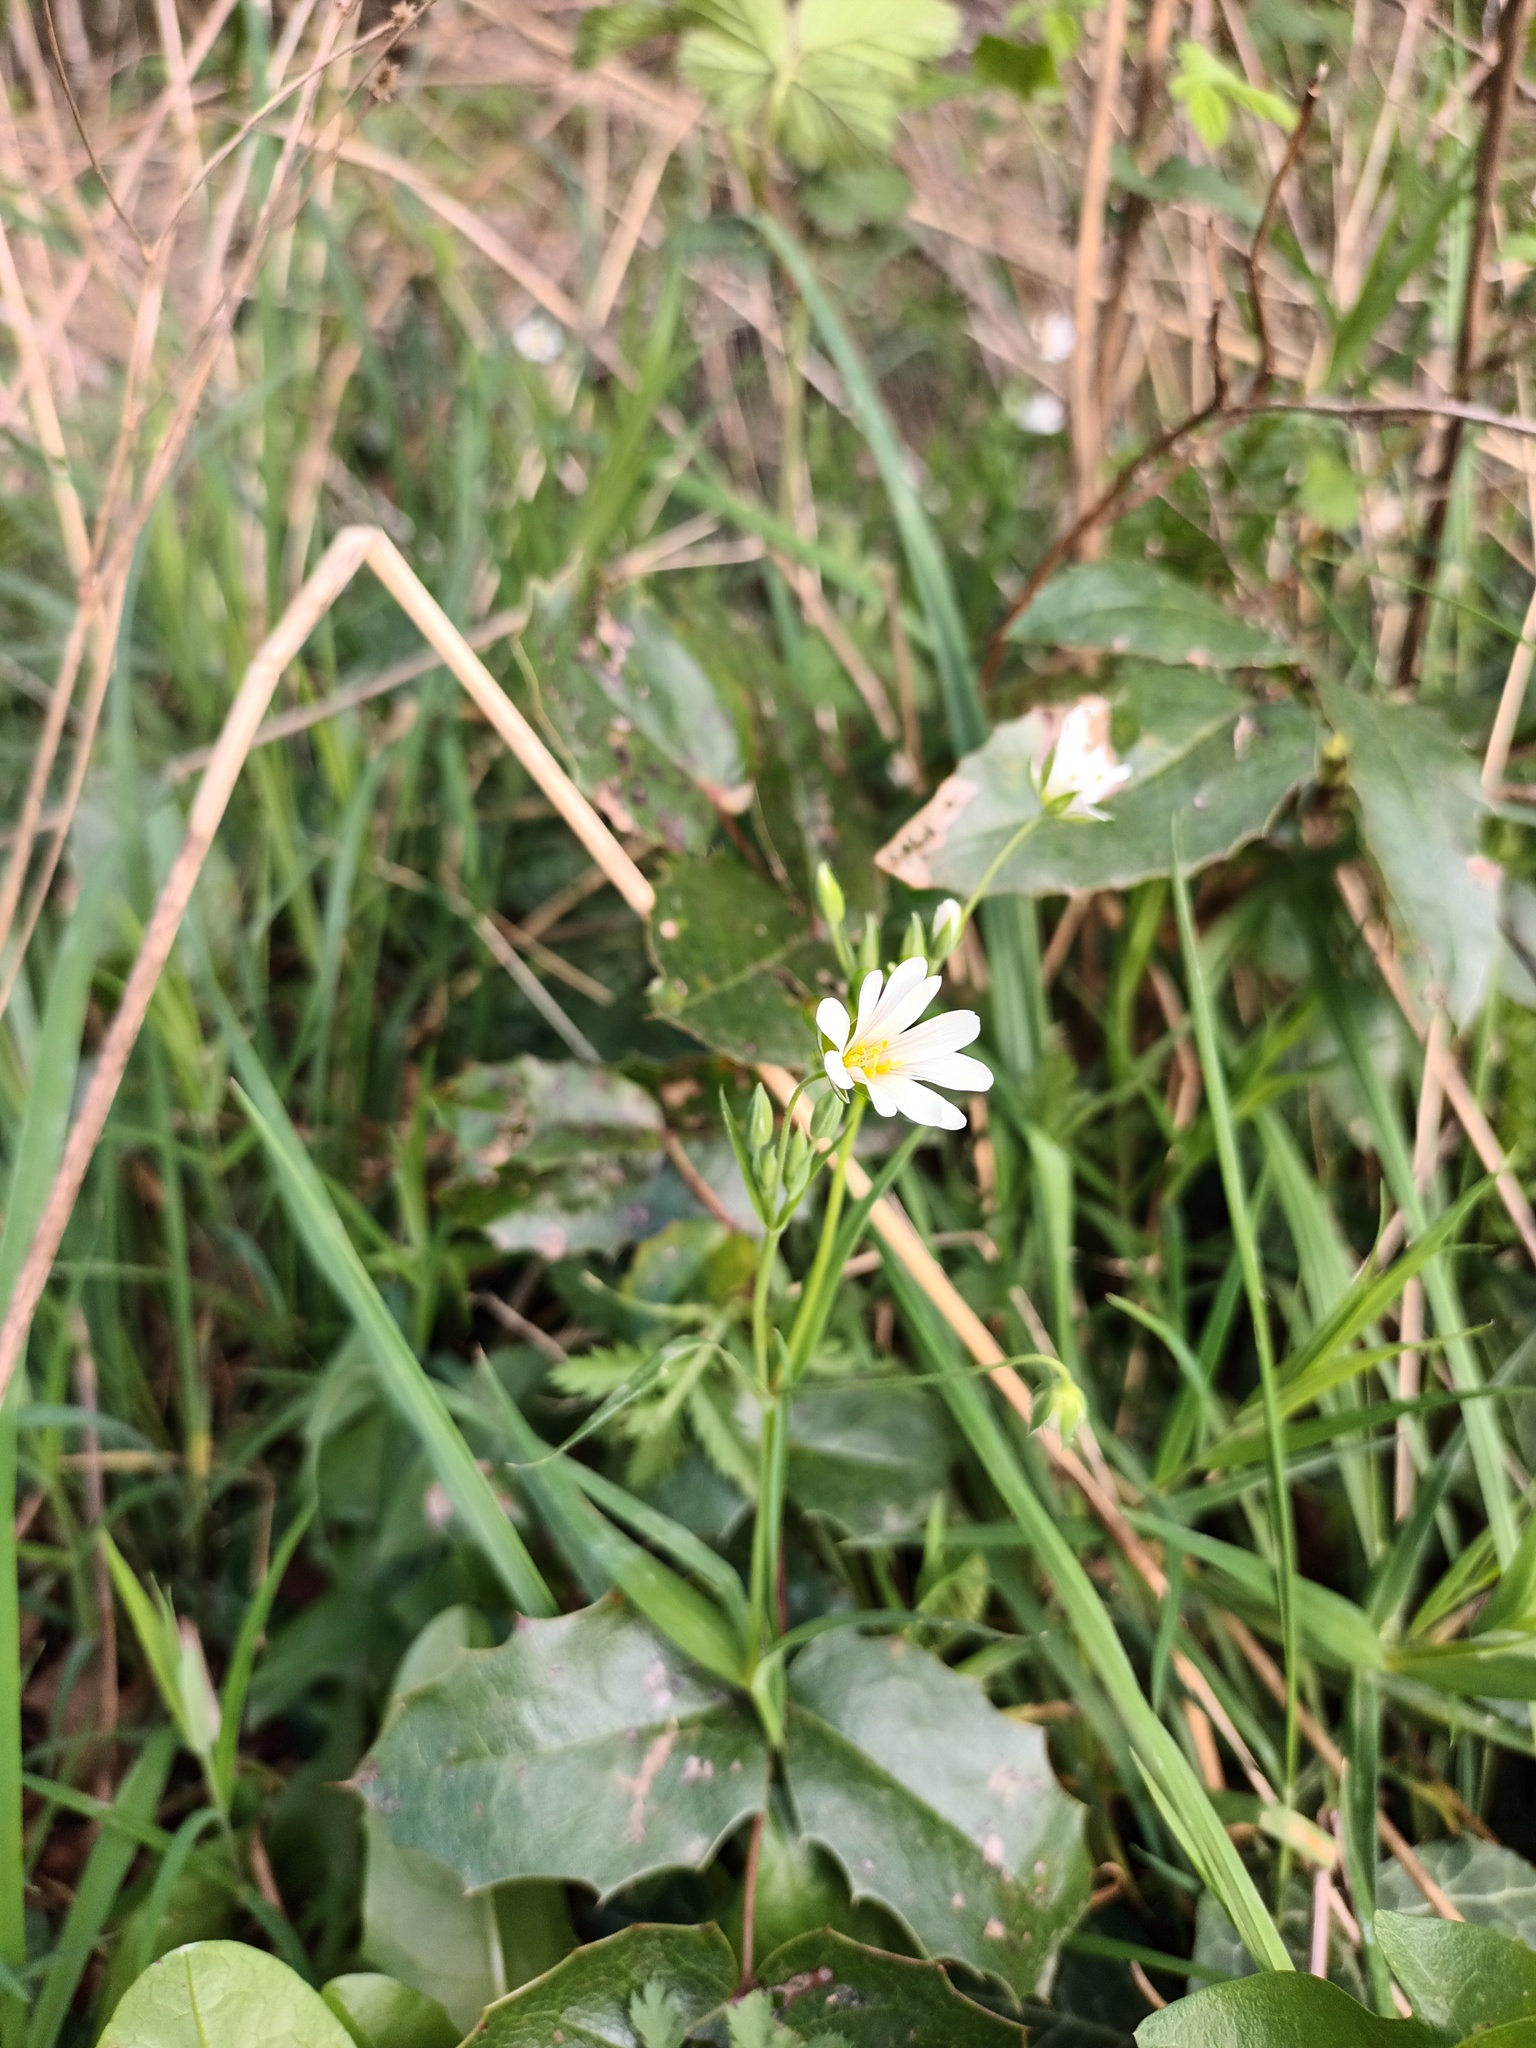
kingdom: Plantae
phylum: Tracheophyta
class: Magnoliopsida
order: Caryophyllales
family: Caryophyllaceae
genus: Rabelera
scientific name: Rabelera holostea
